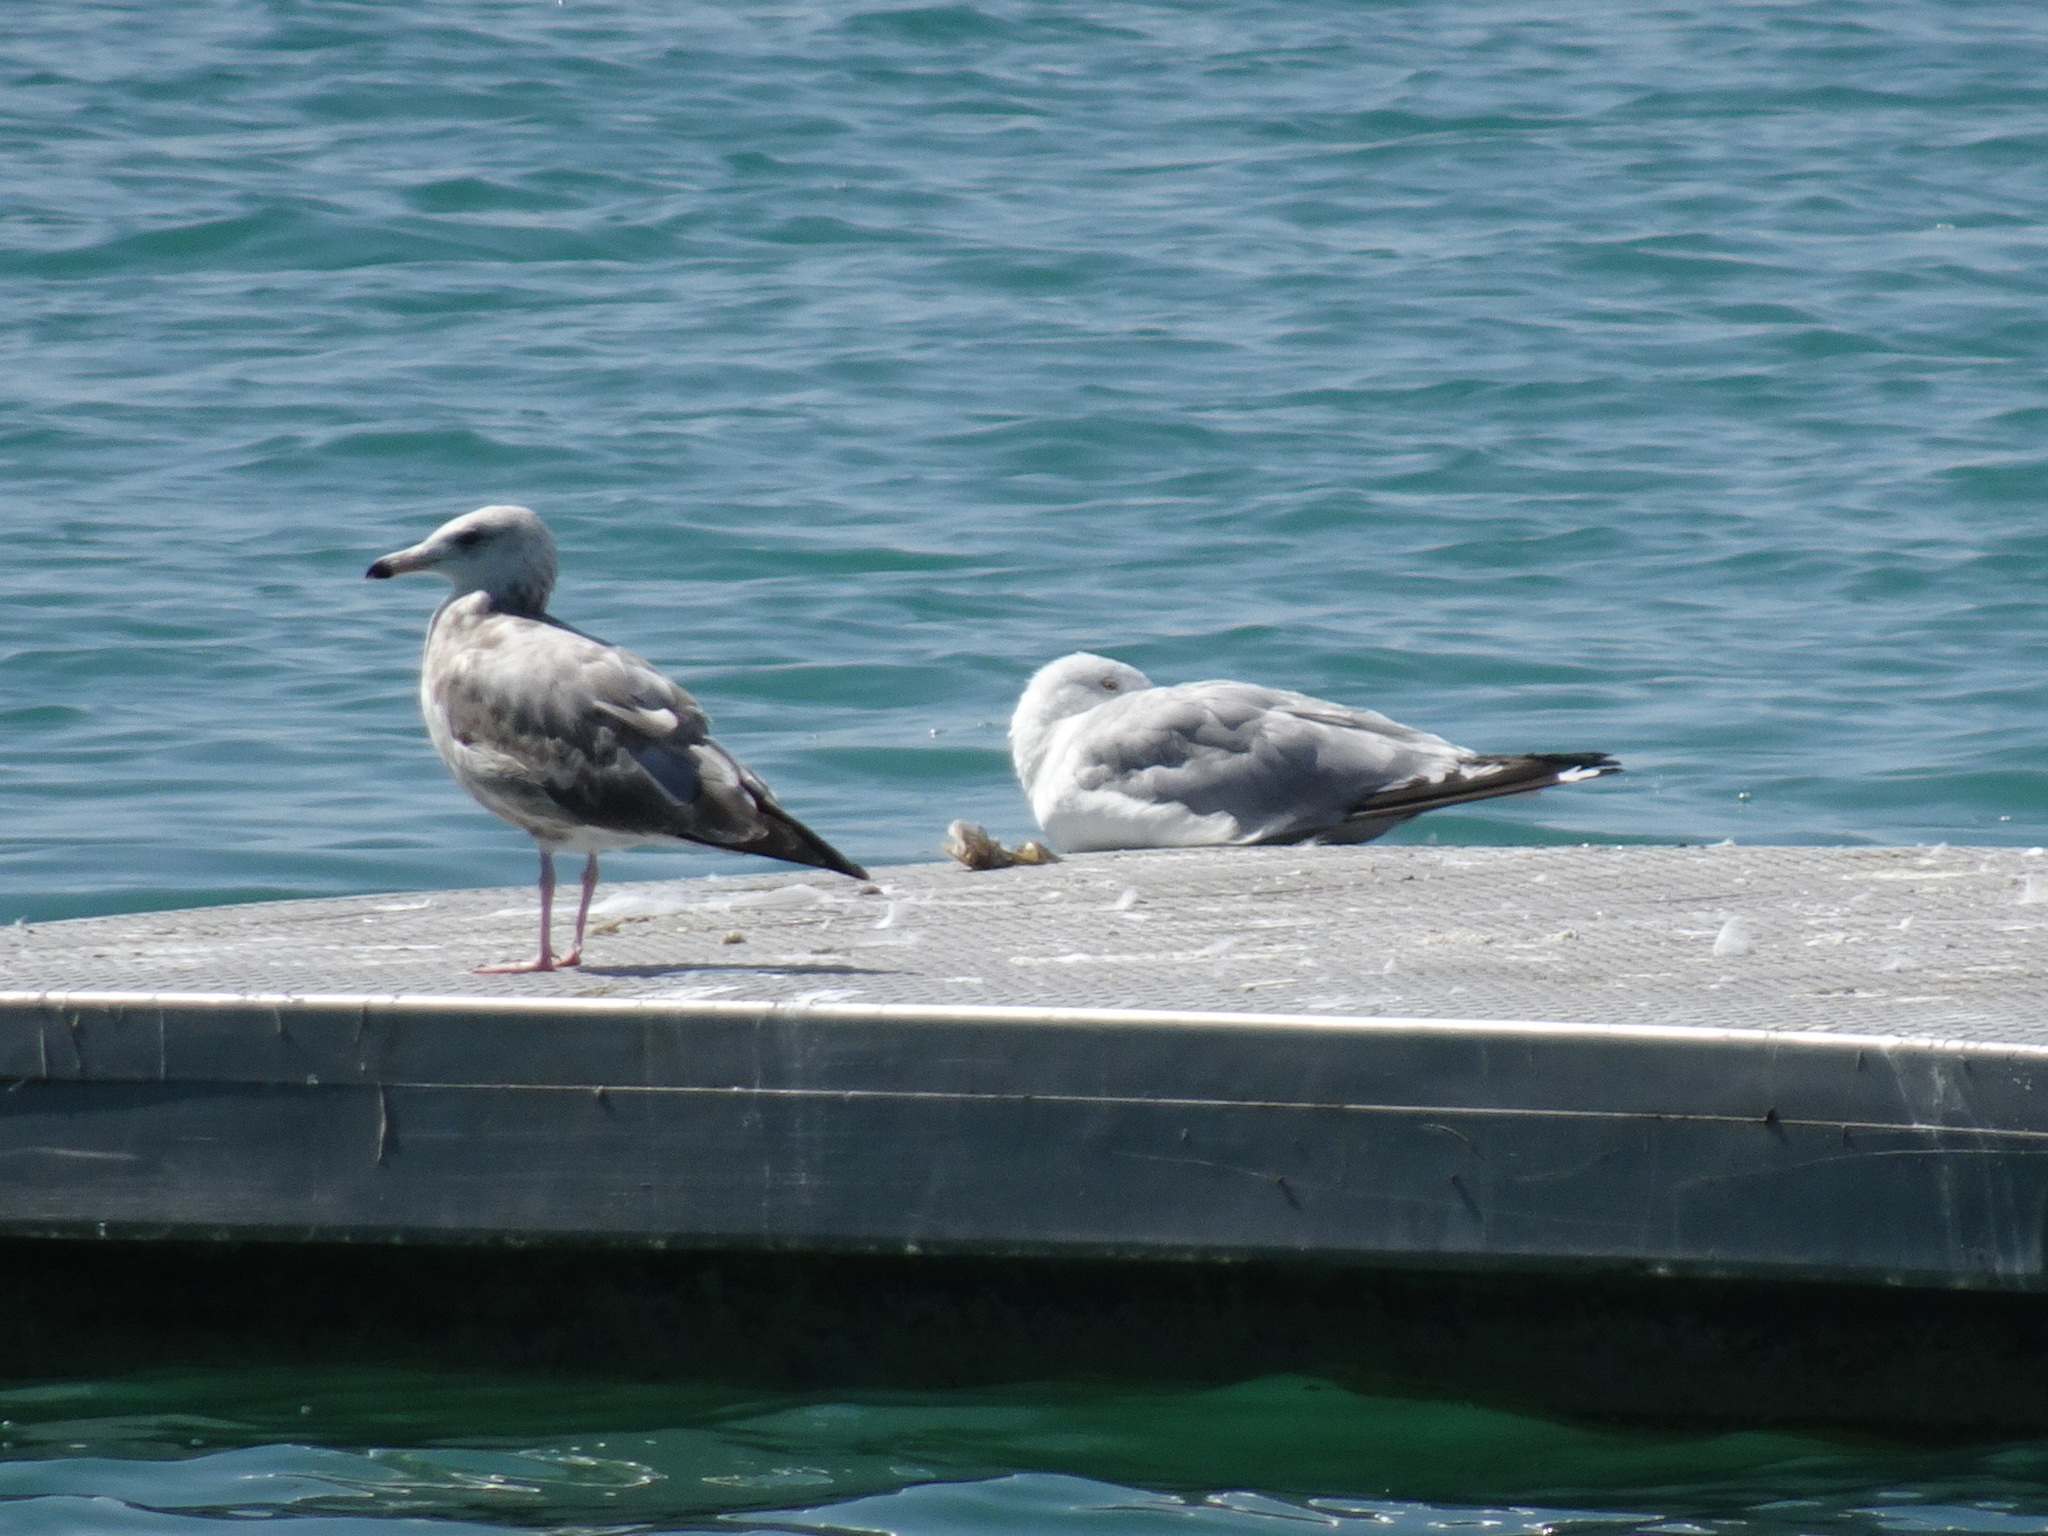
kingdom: Animalia
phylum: Chordata
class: Aves
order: Charadriiformes
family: Laridae
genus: Larus
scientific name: Larus argentatus
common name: Herring gull
